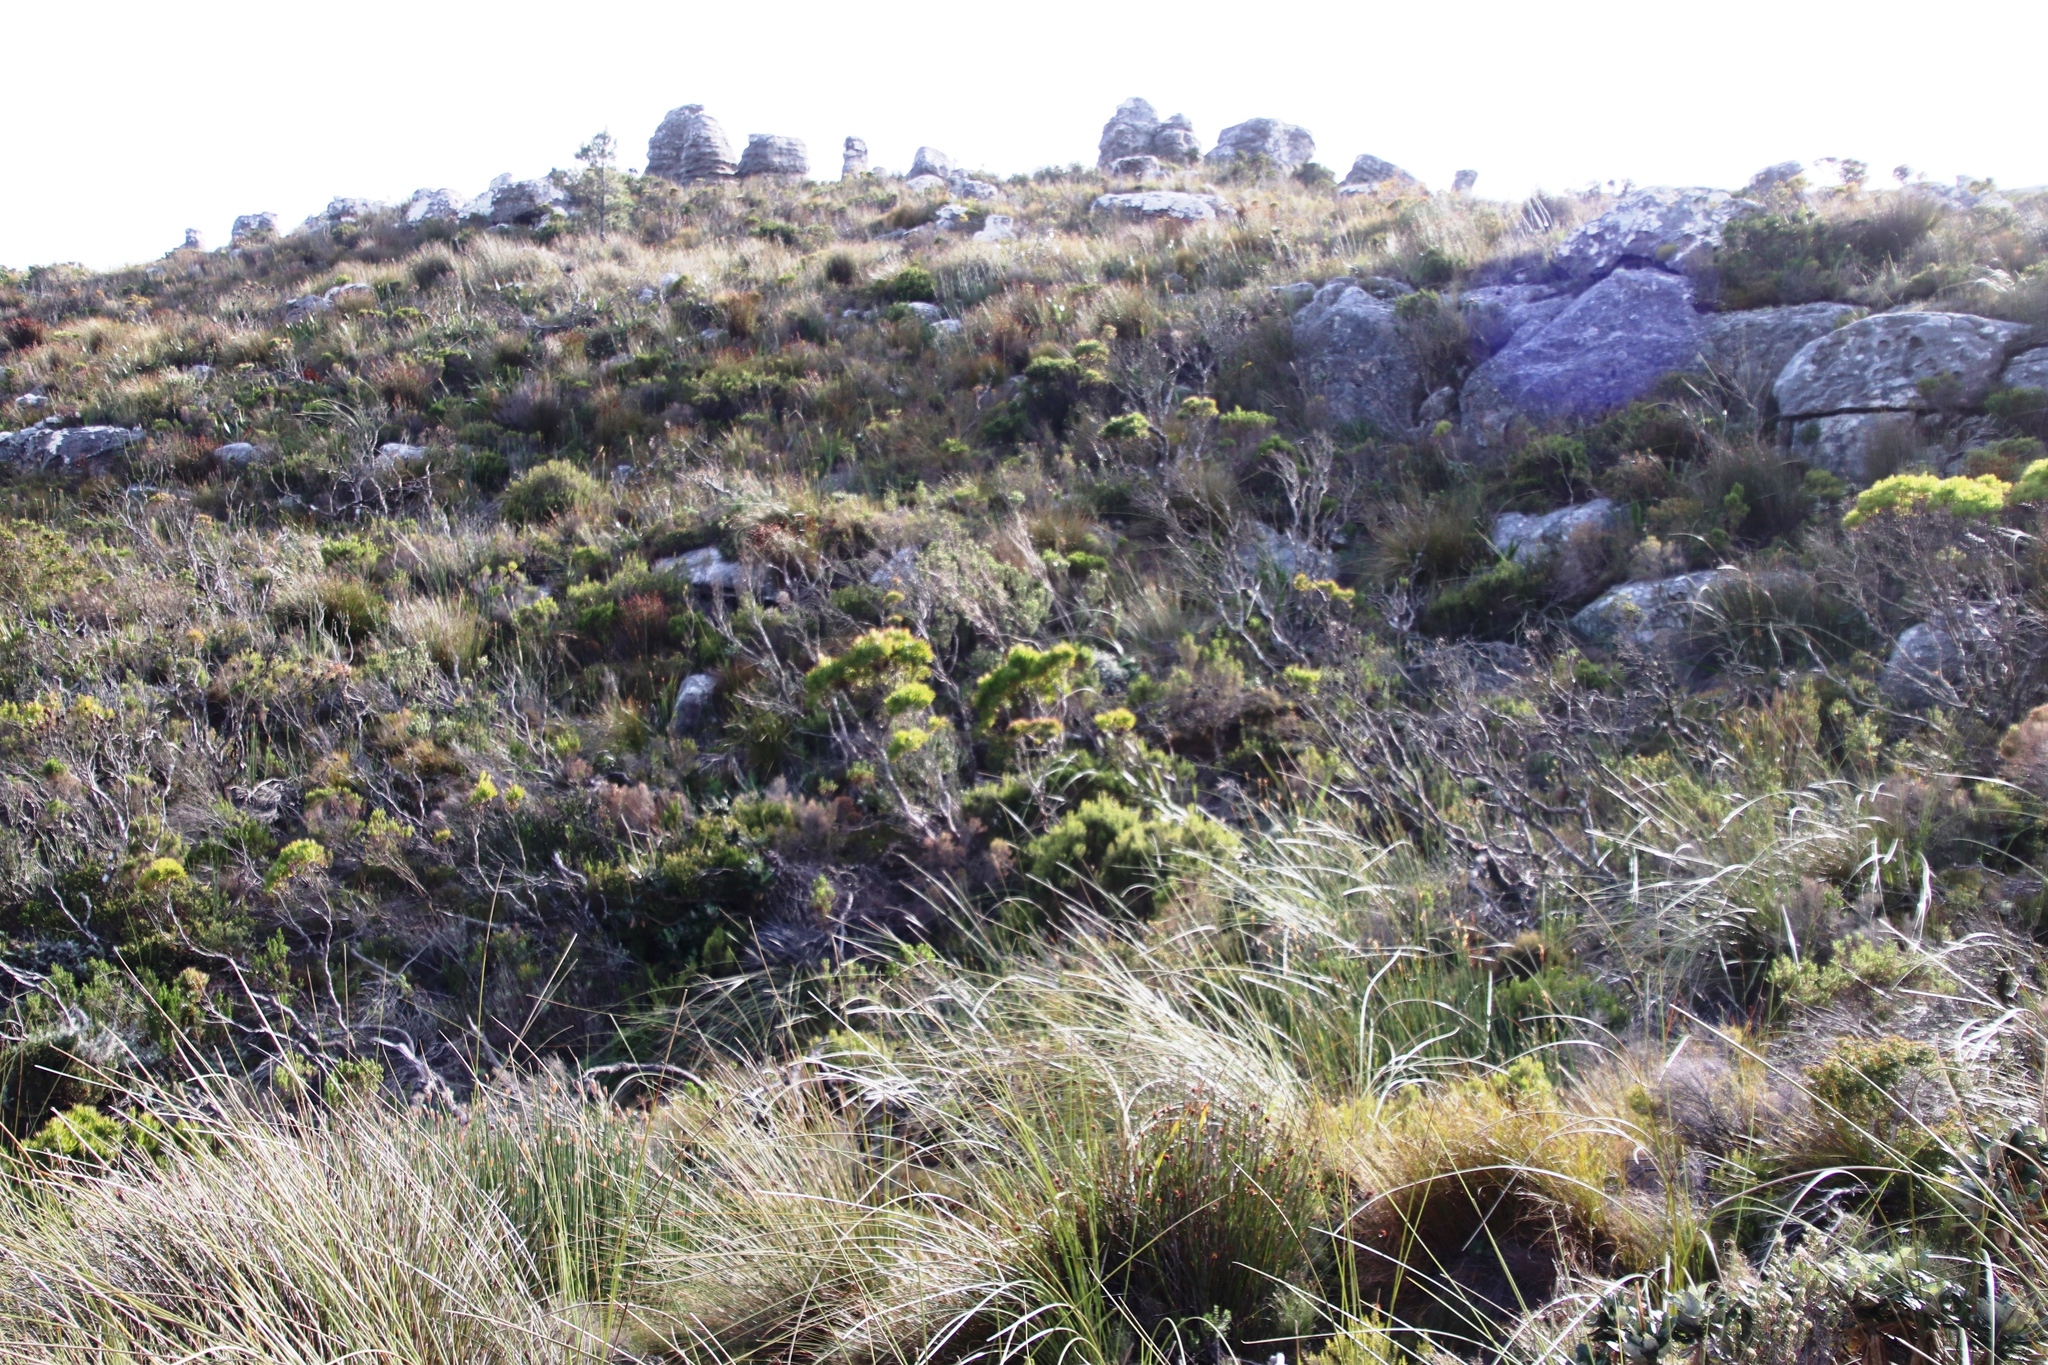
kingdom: Plantae
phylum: Tracheophyta
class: Magnoliopsida
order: Proteales
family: Proteaceae
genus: Leucadendron
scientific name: Leucadendron xanthoconus
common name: Sickle-leaf conebush
